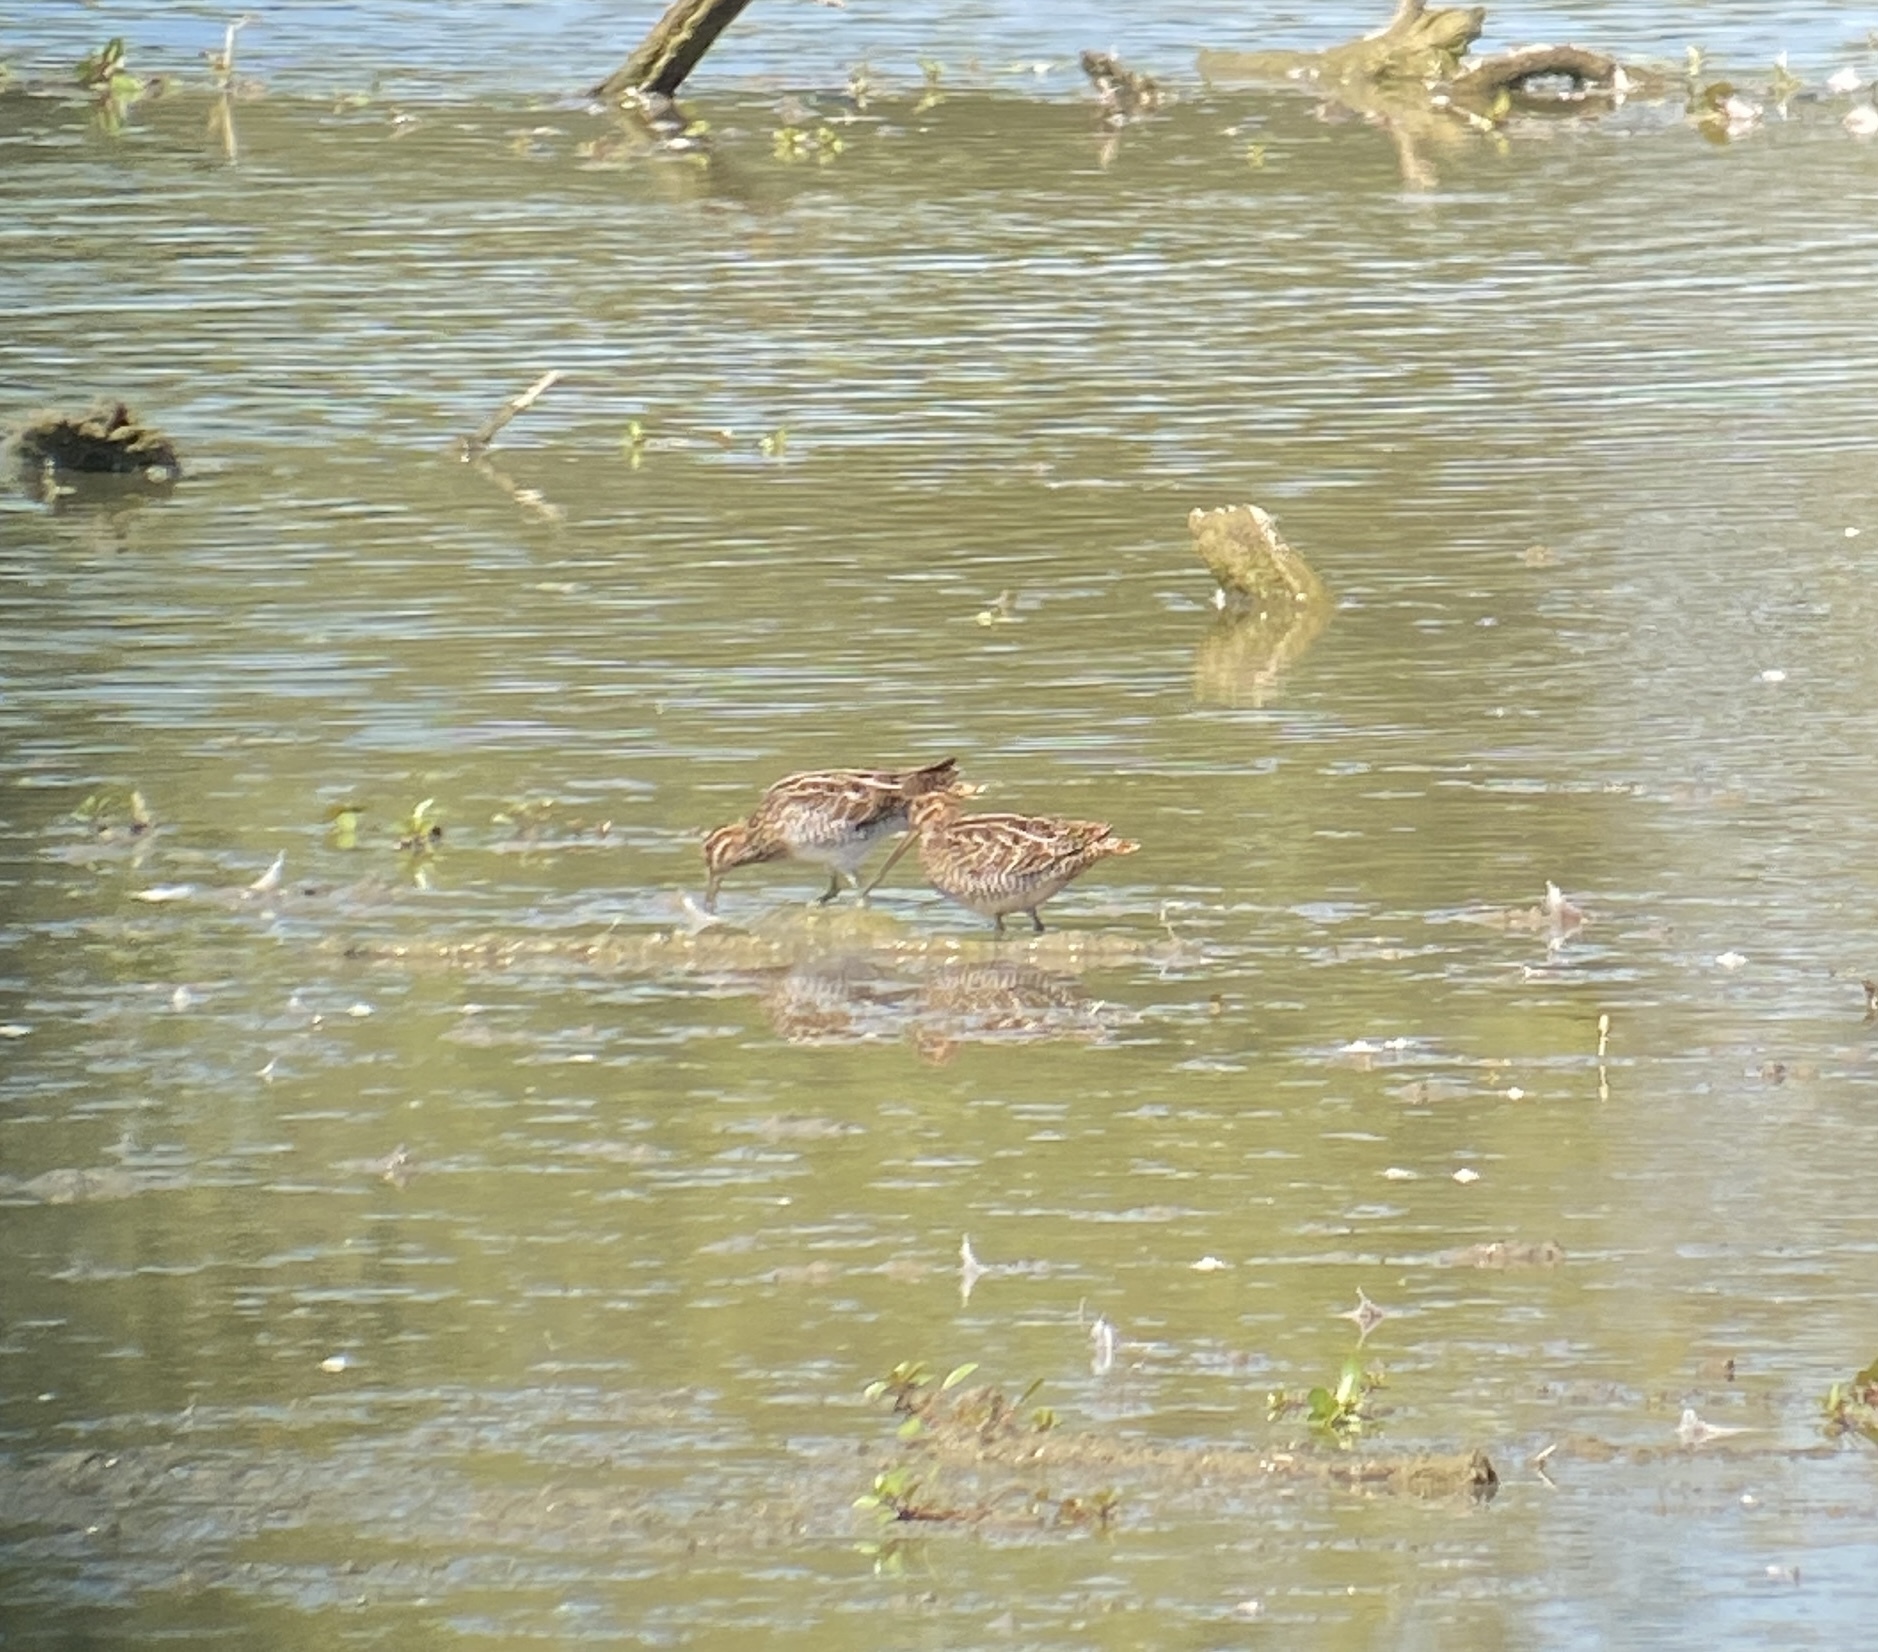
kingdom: Animalia
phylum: Chordata
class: Aves
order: Charadriiformes
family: Scolopacidae
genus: Gallinago
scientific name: Gallinago delicata
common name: Wilson's snipe
